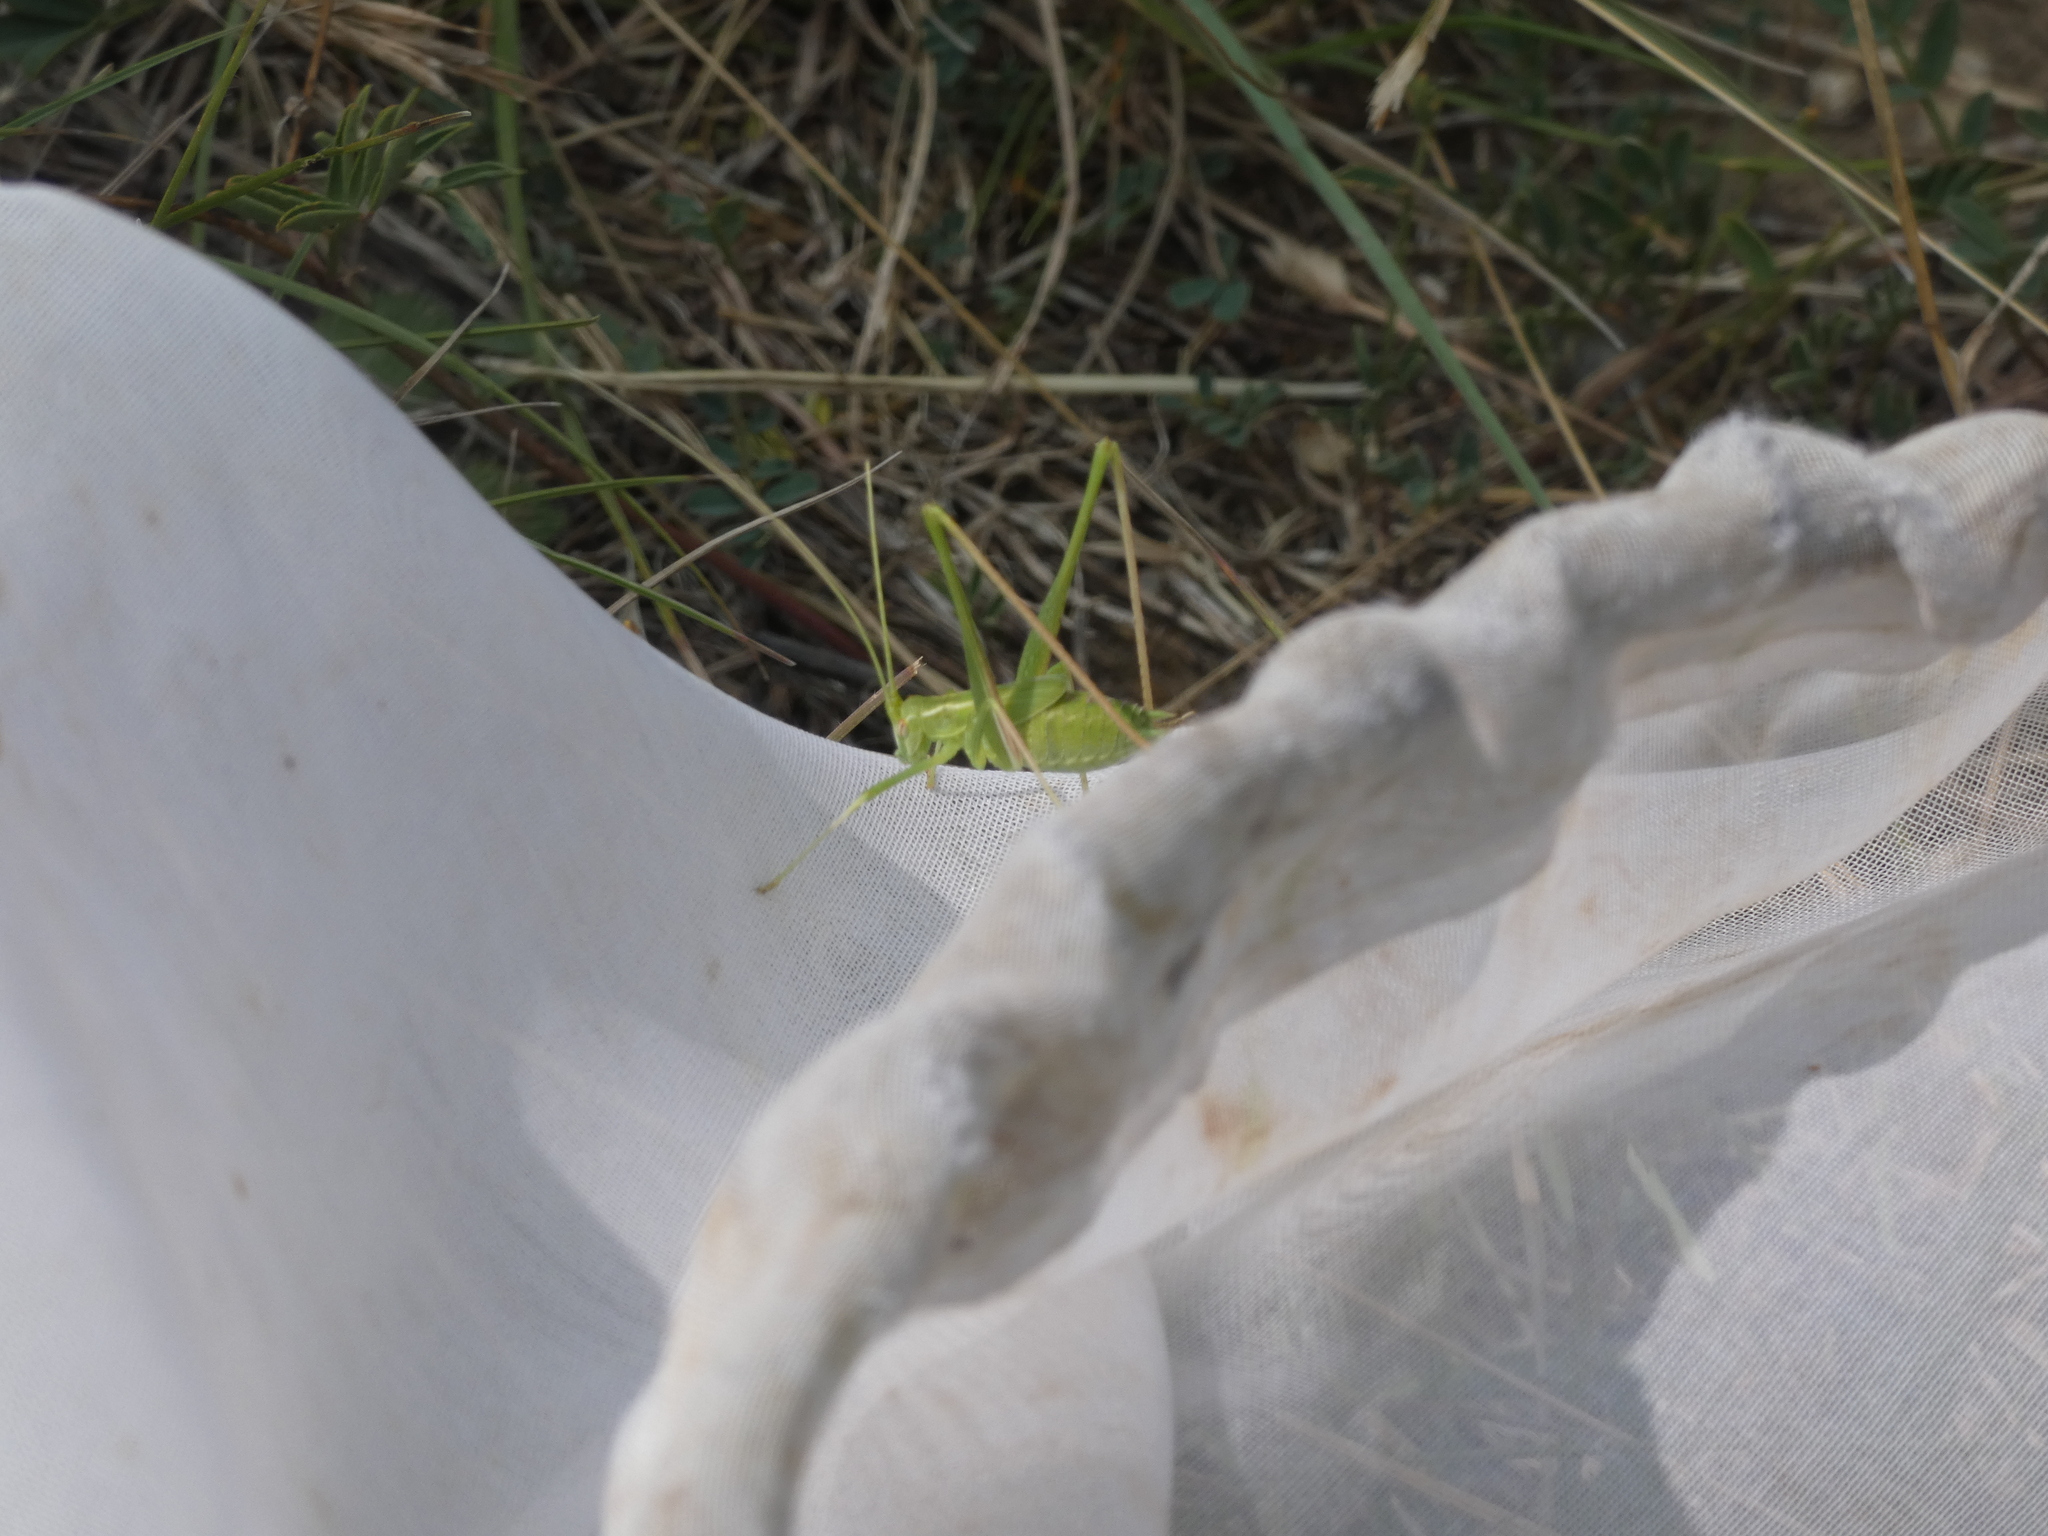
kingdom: Animalia
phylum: Arthropoda
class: Insecta
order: Orthoptera
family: Tettigoniidae
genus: Tylopsis
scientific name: Tylopsis lilifolia
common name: Lily bush-cricket
